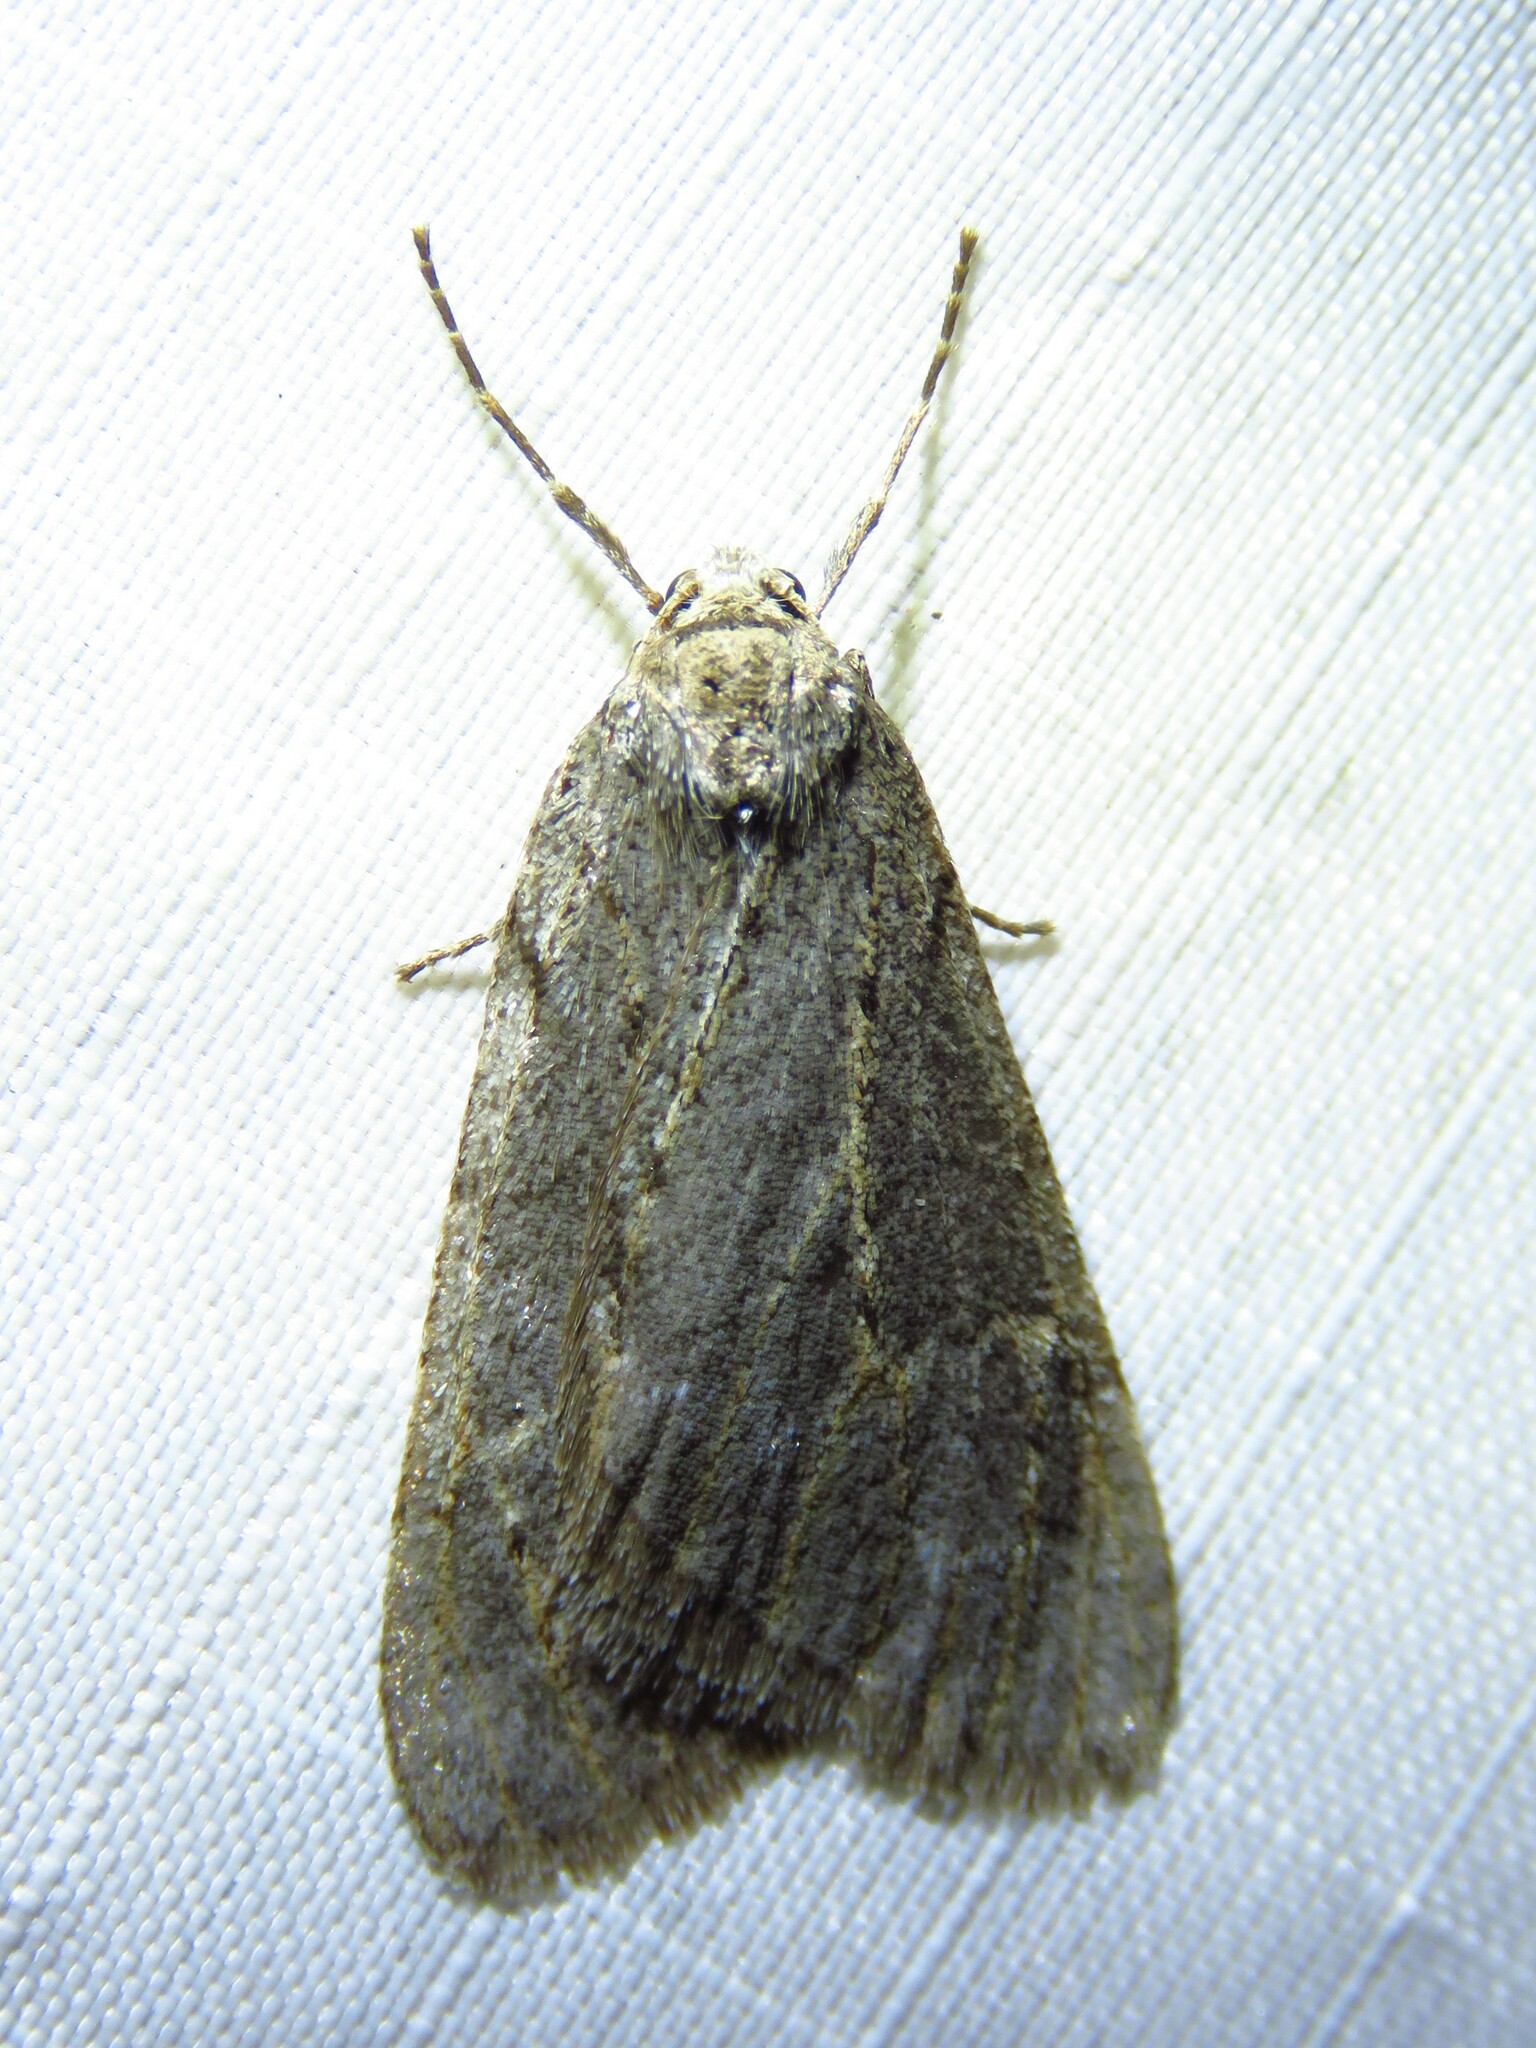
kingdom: Animalia
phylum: Arthropoda
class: Insecta
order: Lepidoptera
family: Geometridae
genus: Paleacrita
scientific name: Paleacrita vernata
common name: Spring cankerworm
